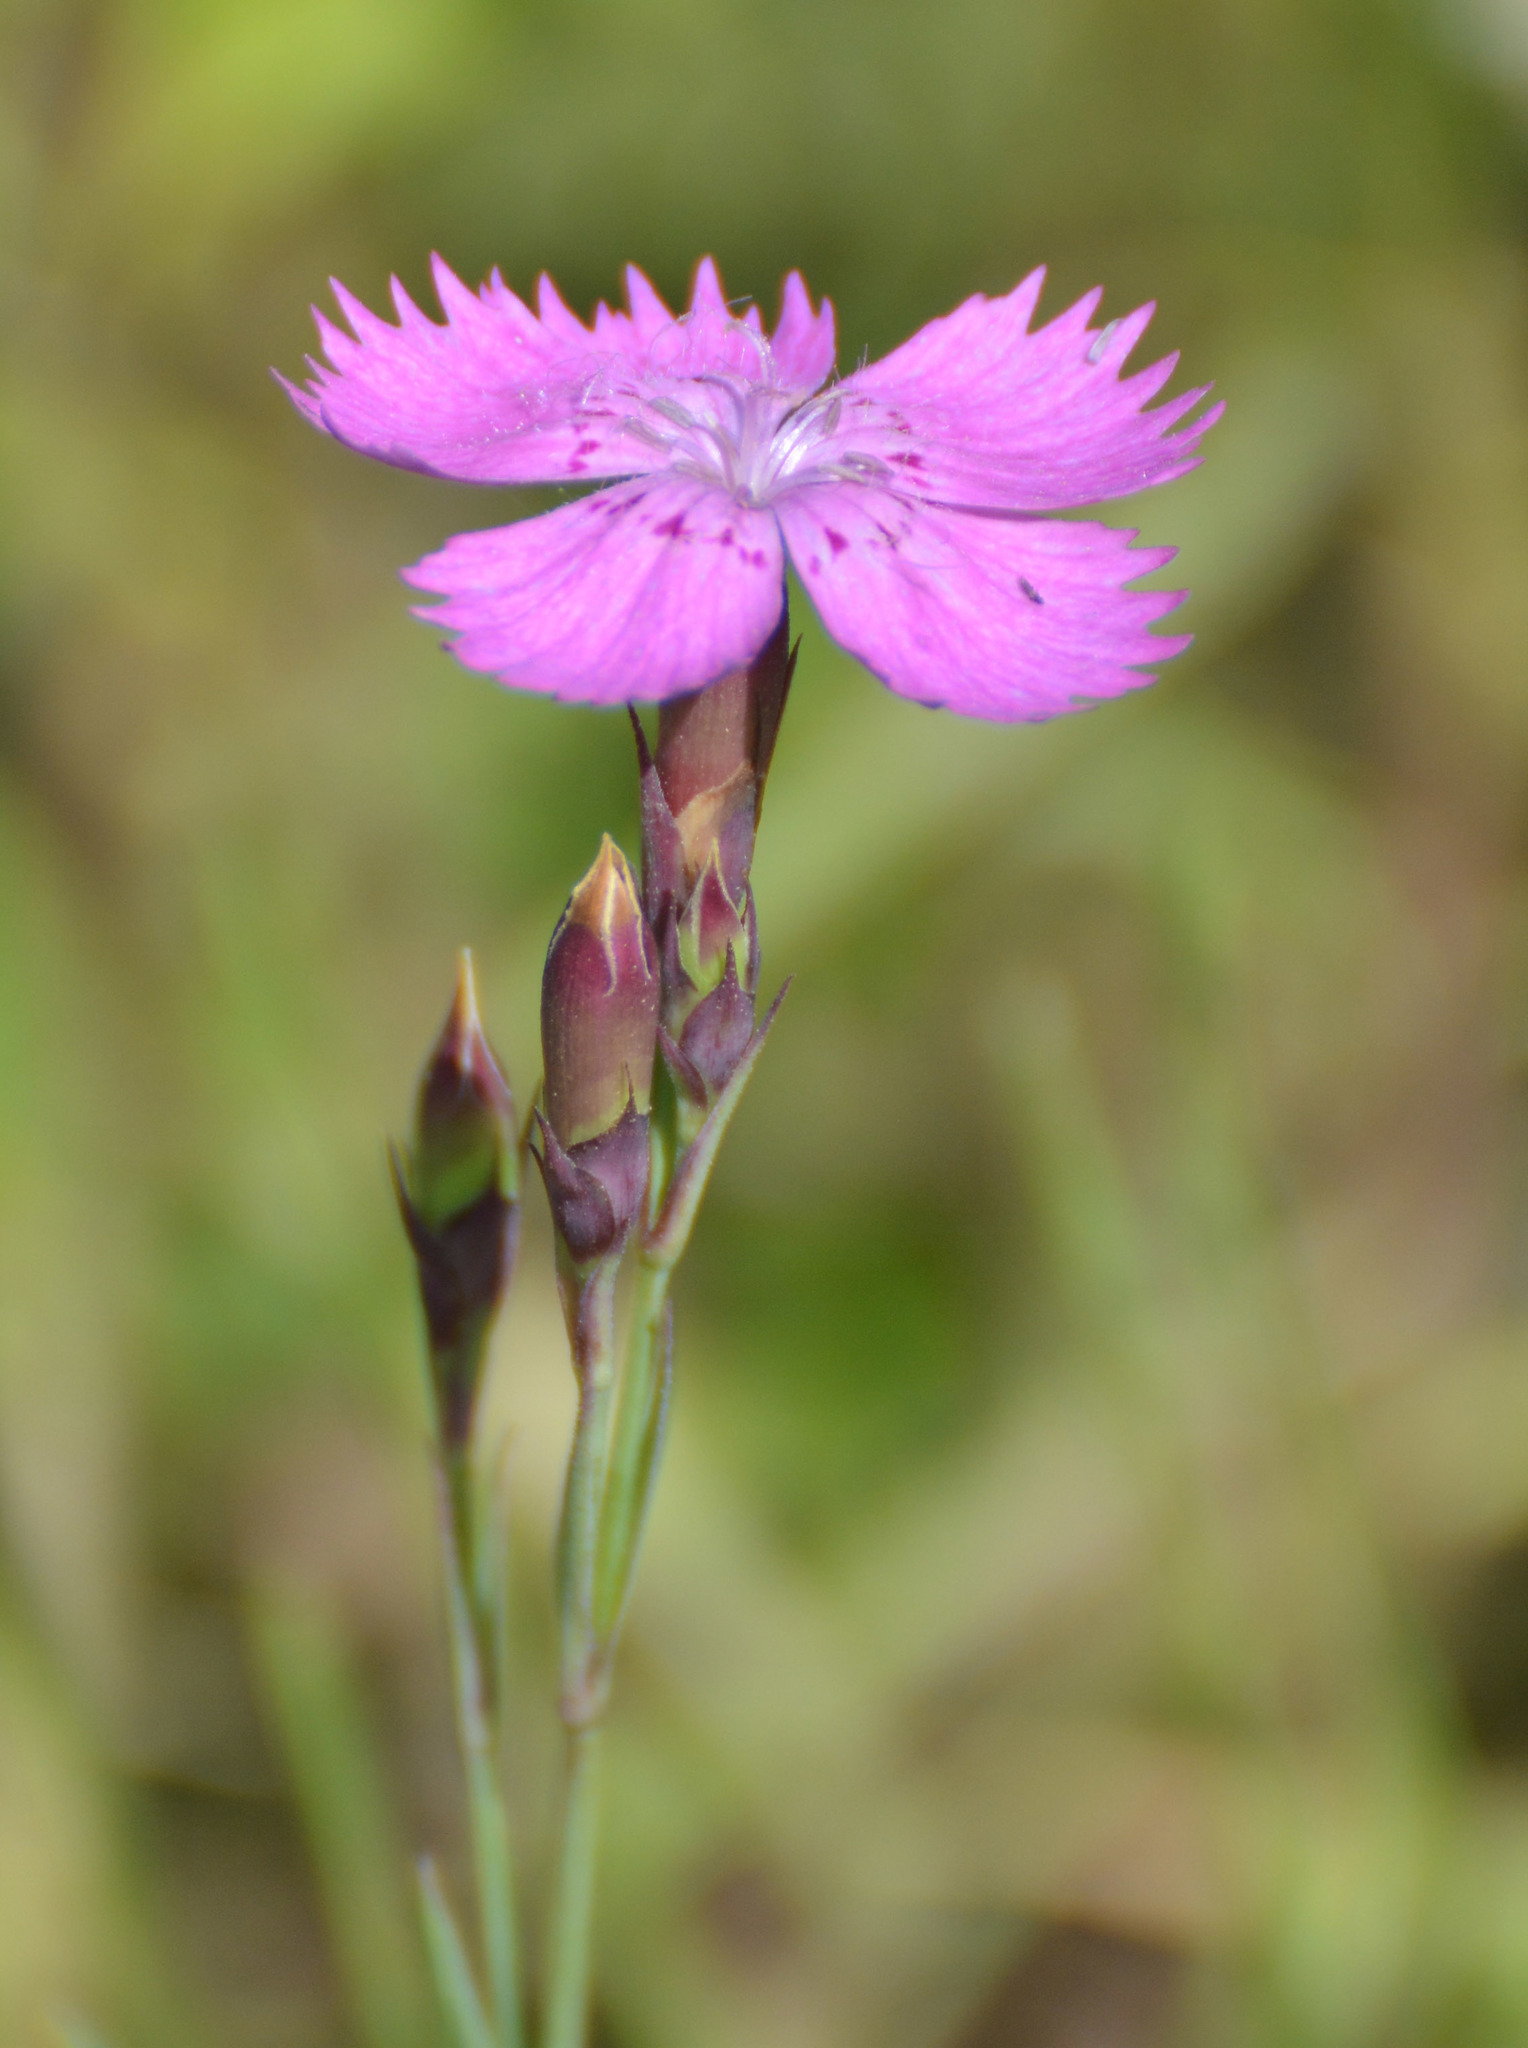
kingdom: Plantae
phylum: Tracheophyta
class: Magnoliopsida
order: Caryophyllales
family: Caryophyllaceae
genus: Dianthus
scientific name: Dianthus chinensis
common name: Rainbow pink
